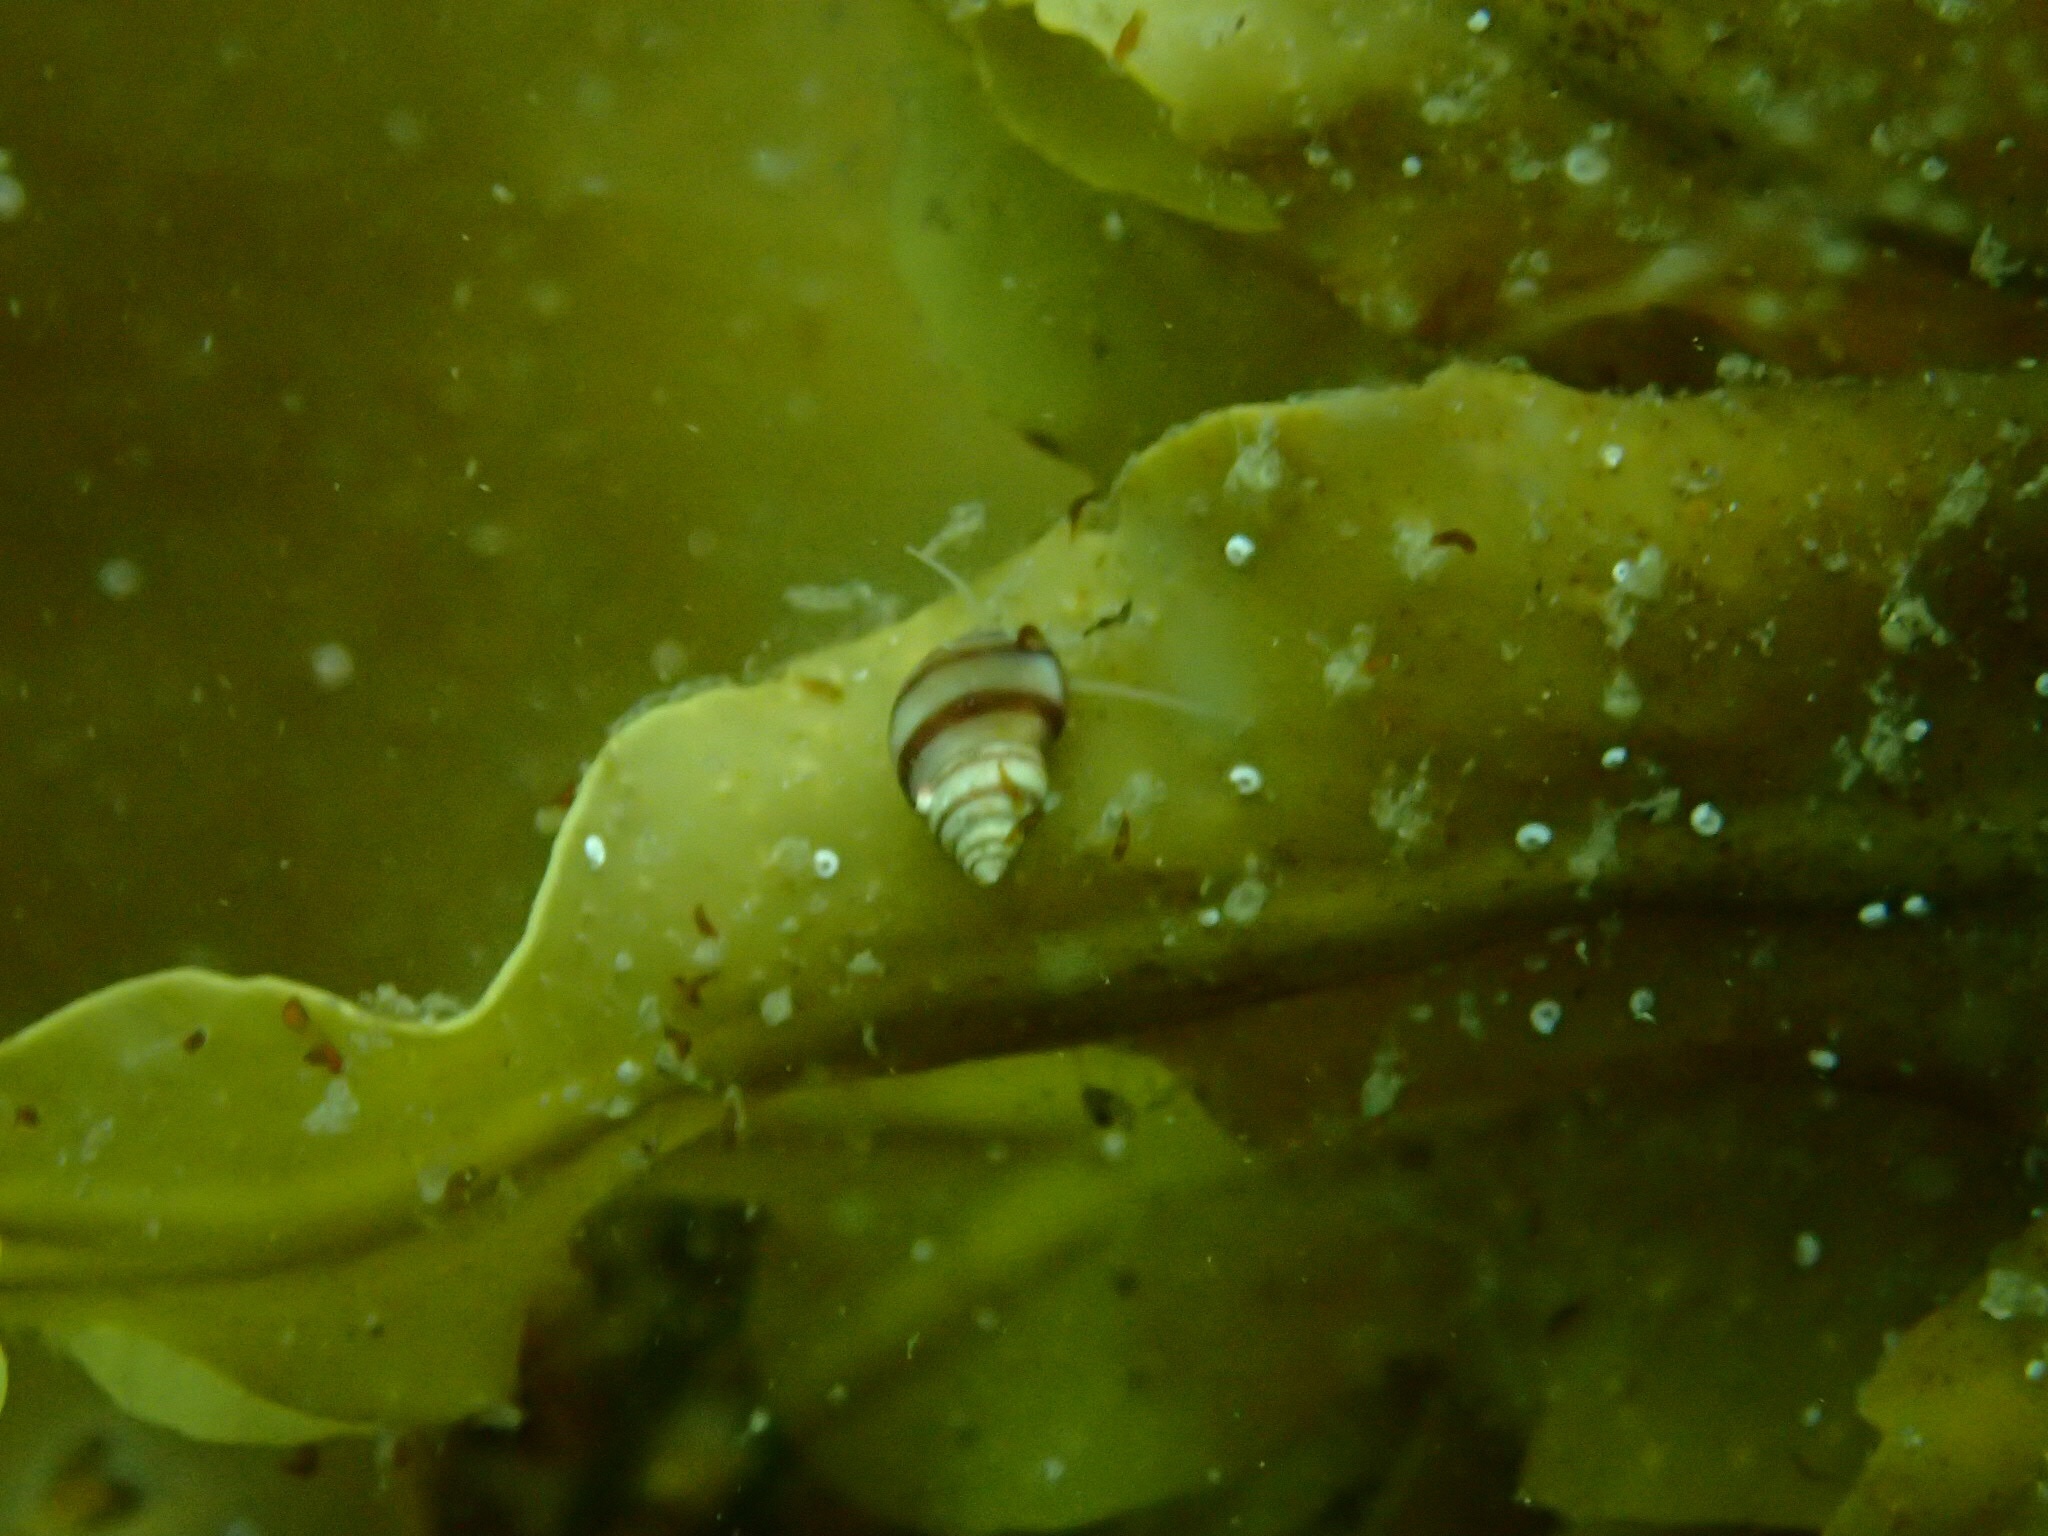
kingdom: Animalia
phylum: Mollusca
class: Gastropoda
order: Littorinimorpha
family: Littorinidae
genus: Lacuna
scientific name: Lacuna vincta
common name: Banded chink shell
